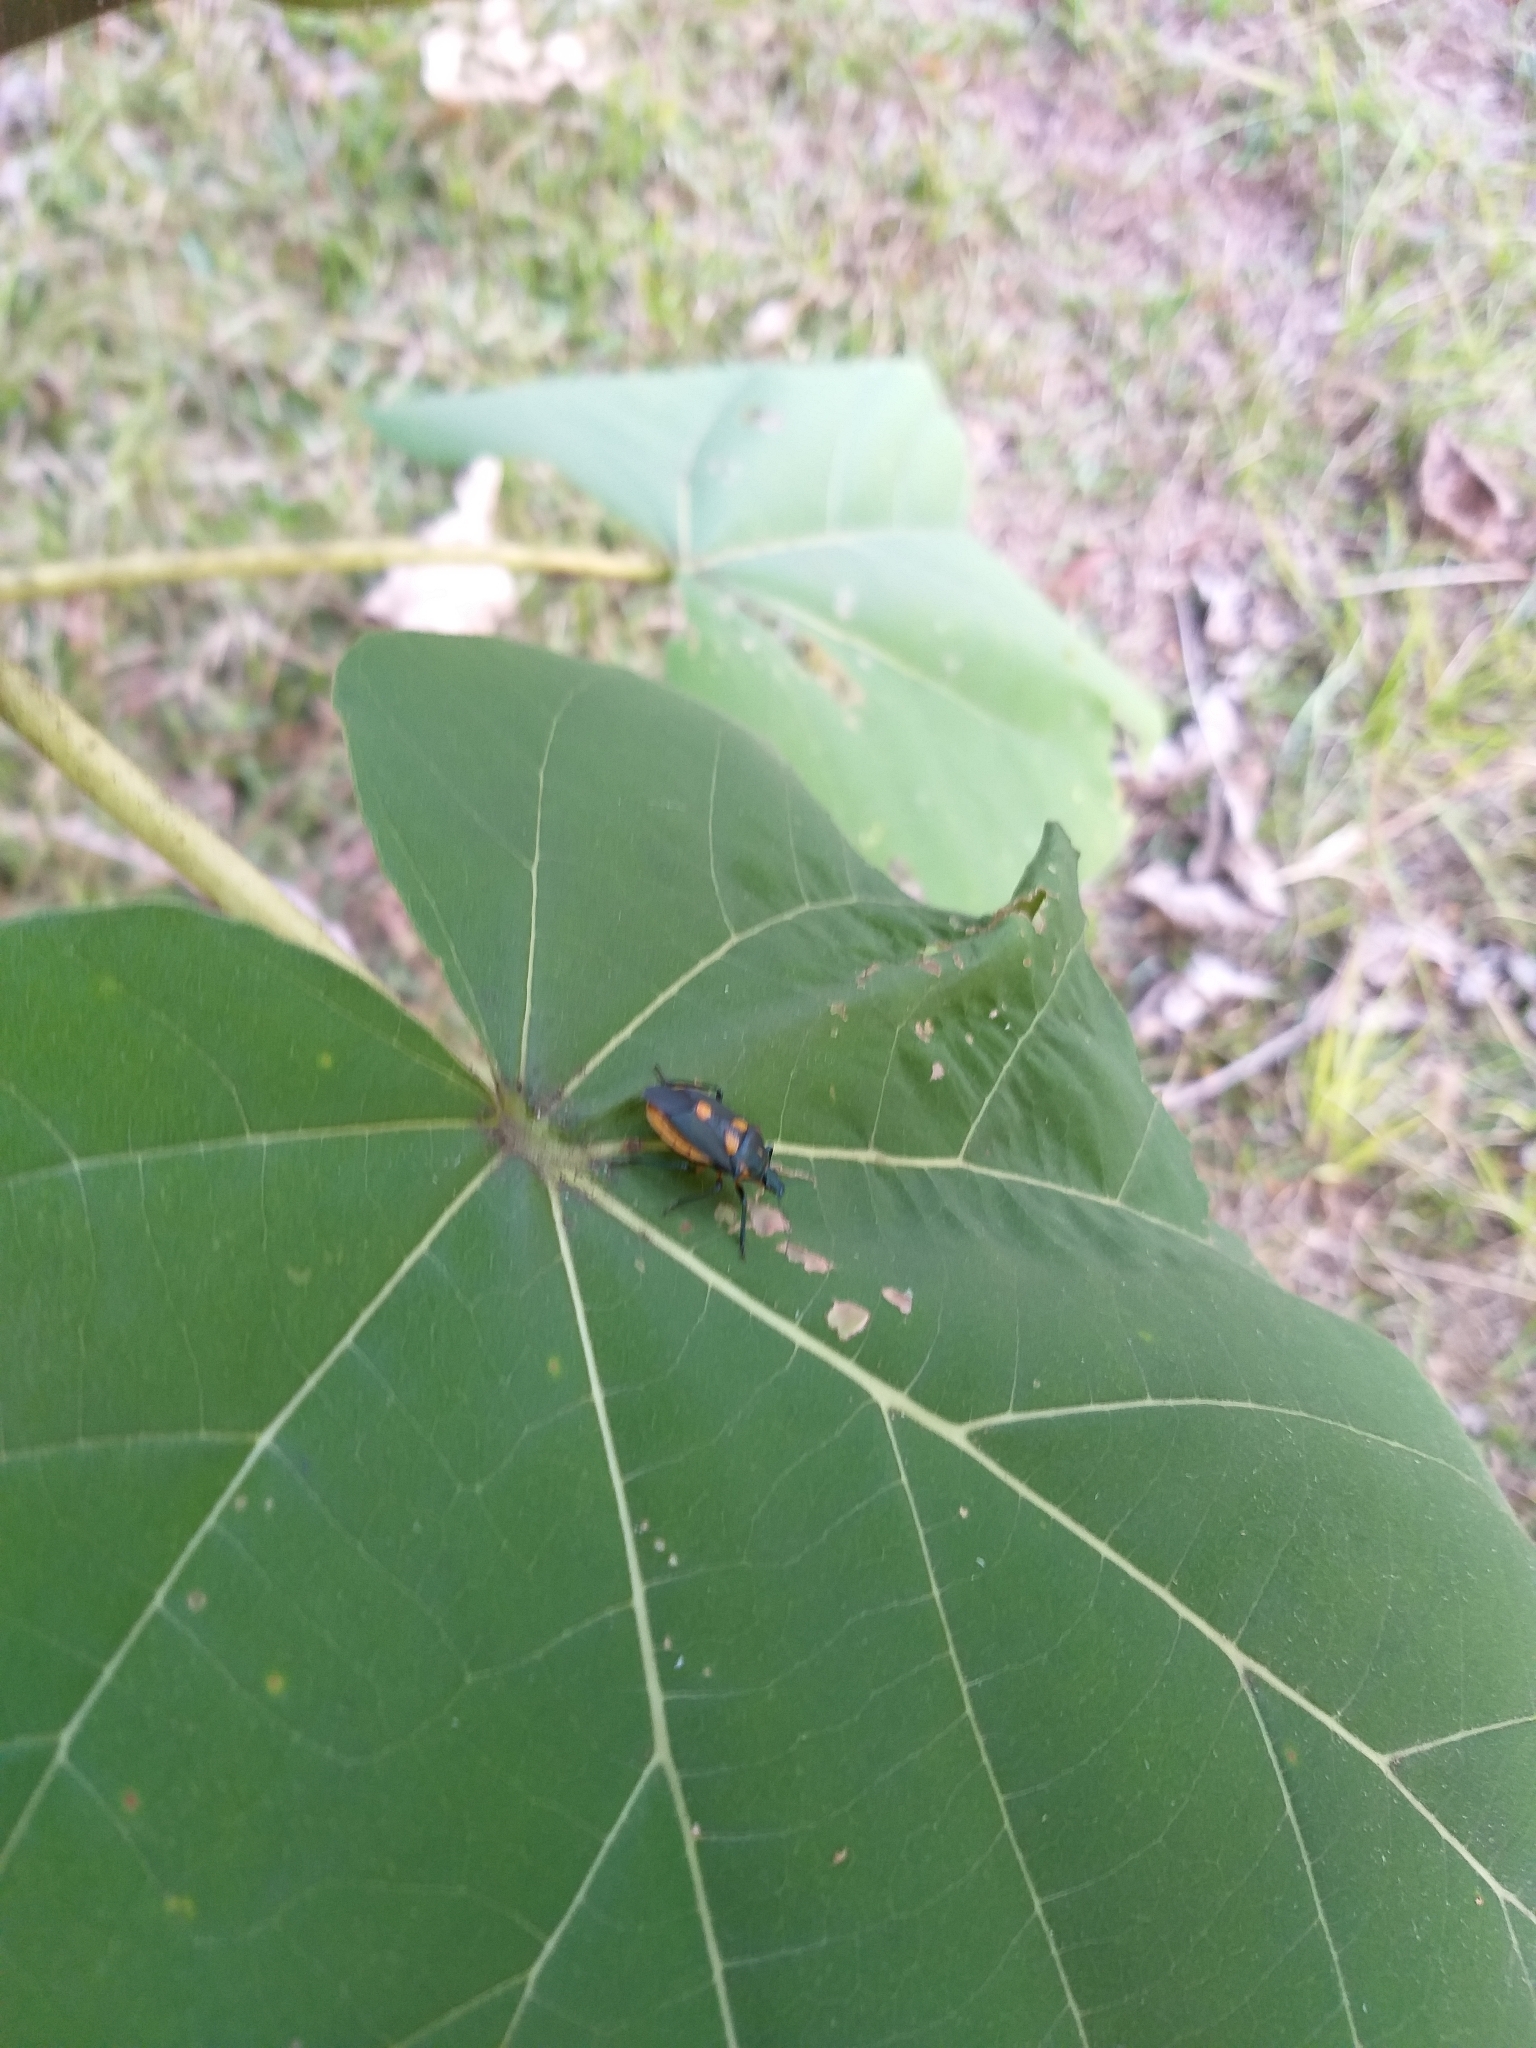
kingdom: Animalia
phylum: Arthropoda
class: Insecta
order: Hemiptera
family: Pentatomidae
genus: Euthyrhynchus
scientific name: Euthyrhynchus floridanus
